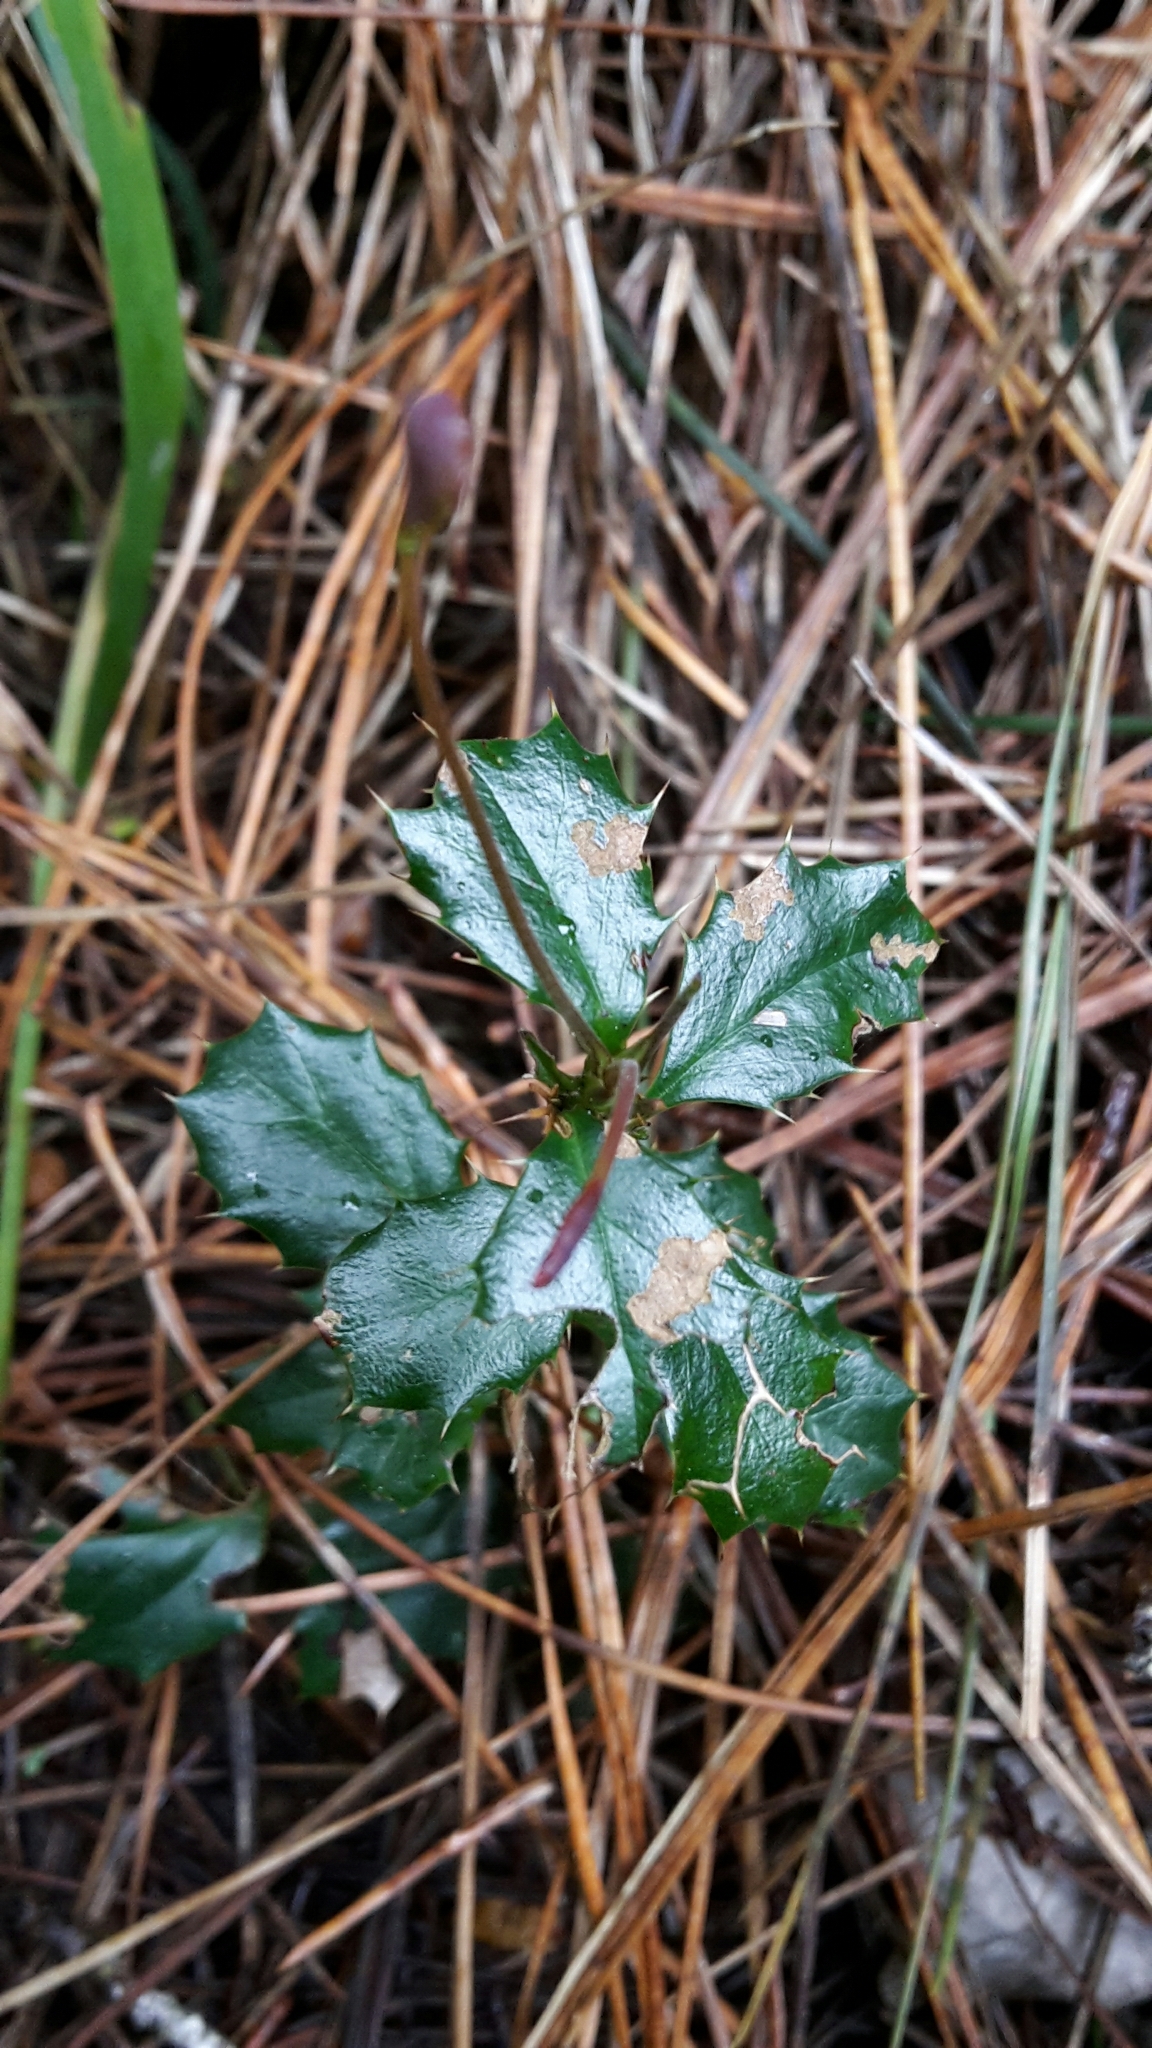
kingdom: Plantae
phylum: Tracheophyta
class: Magnoliopsida
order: Ranunculales
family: Berberidaceae
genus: Berberis
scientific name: Berberis darwinii
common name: Darwin's barberry
